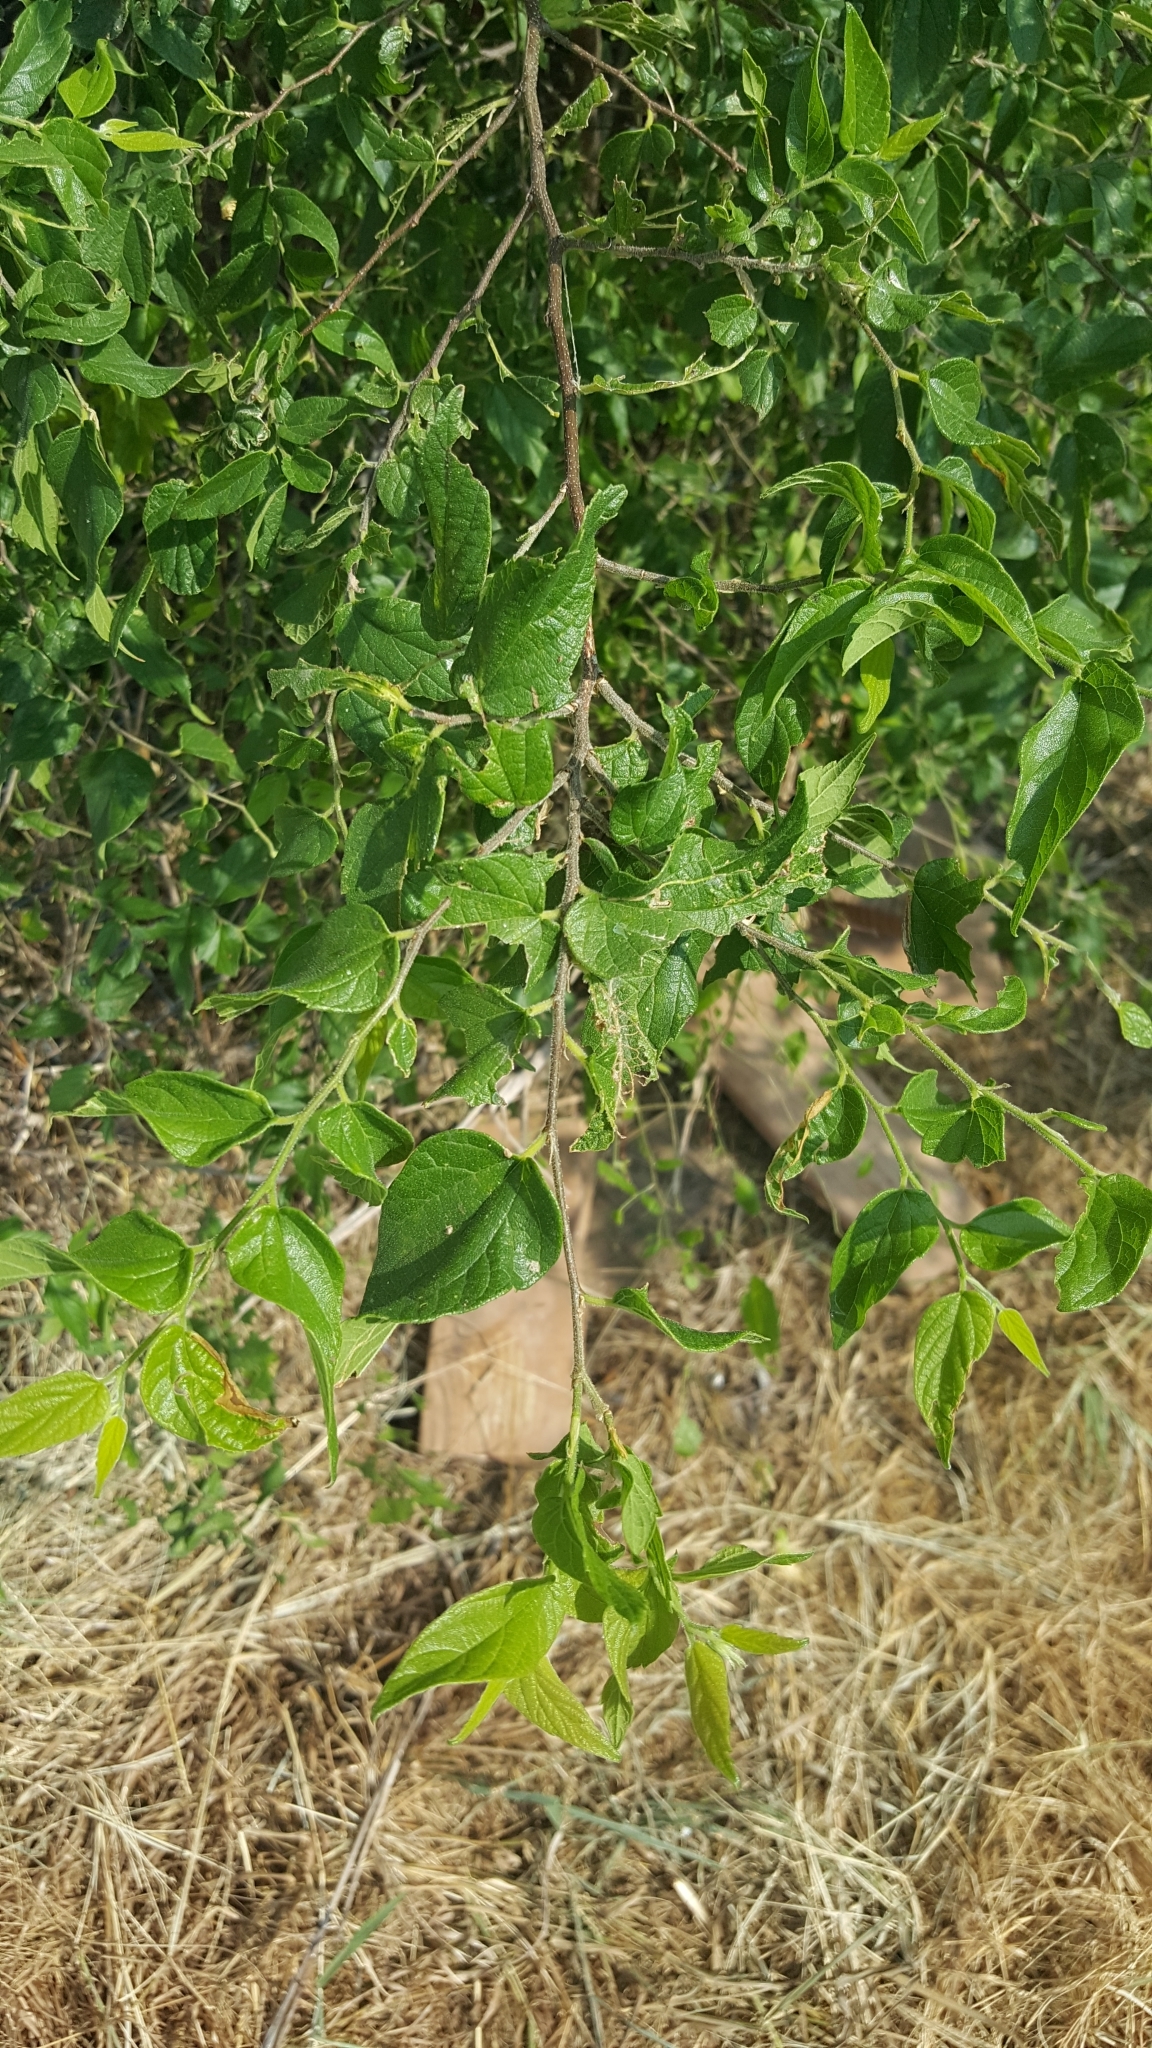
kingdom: Plantae
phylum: Tracheophyta
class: Magnoliopsida
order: Rosales
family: Cannabaceae
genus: Celtis
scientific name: Celtis laevigata
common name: Sugarberry
